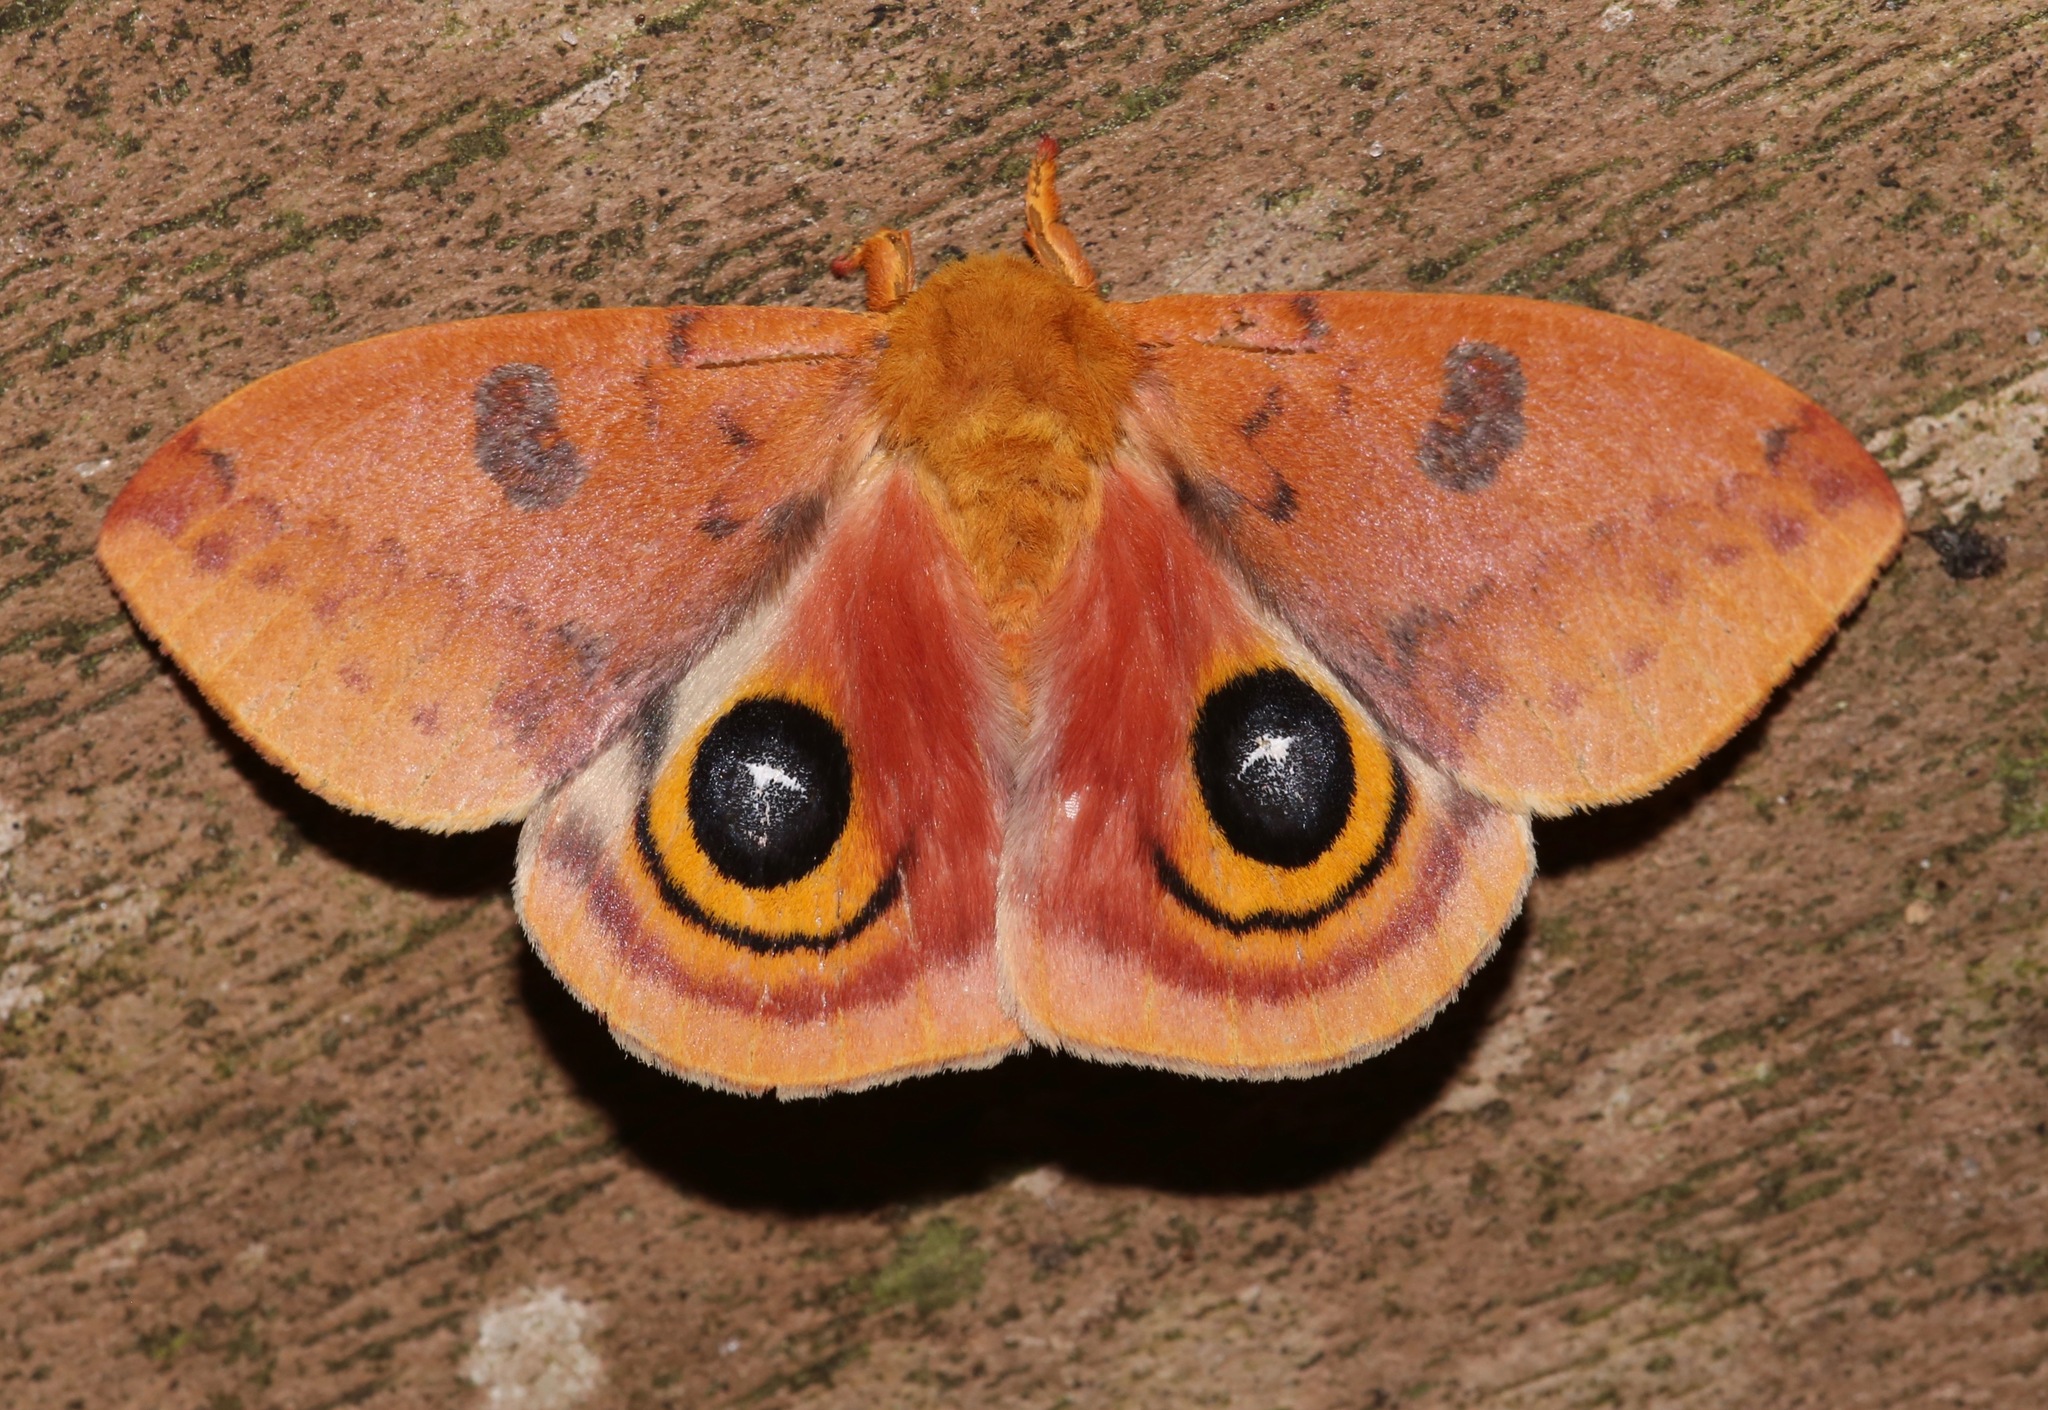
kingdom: Animalia
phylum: Arthropoda
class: Insecta
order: Lepidoptera
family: Saturniidae
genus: Automeris
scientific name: Automeris io
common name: Io moth
